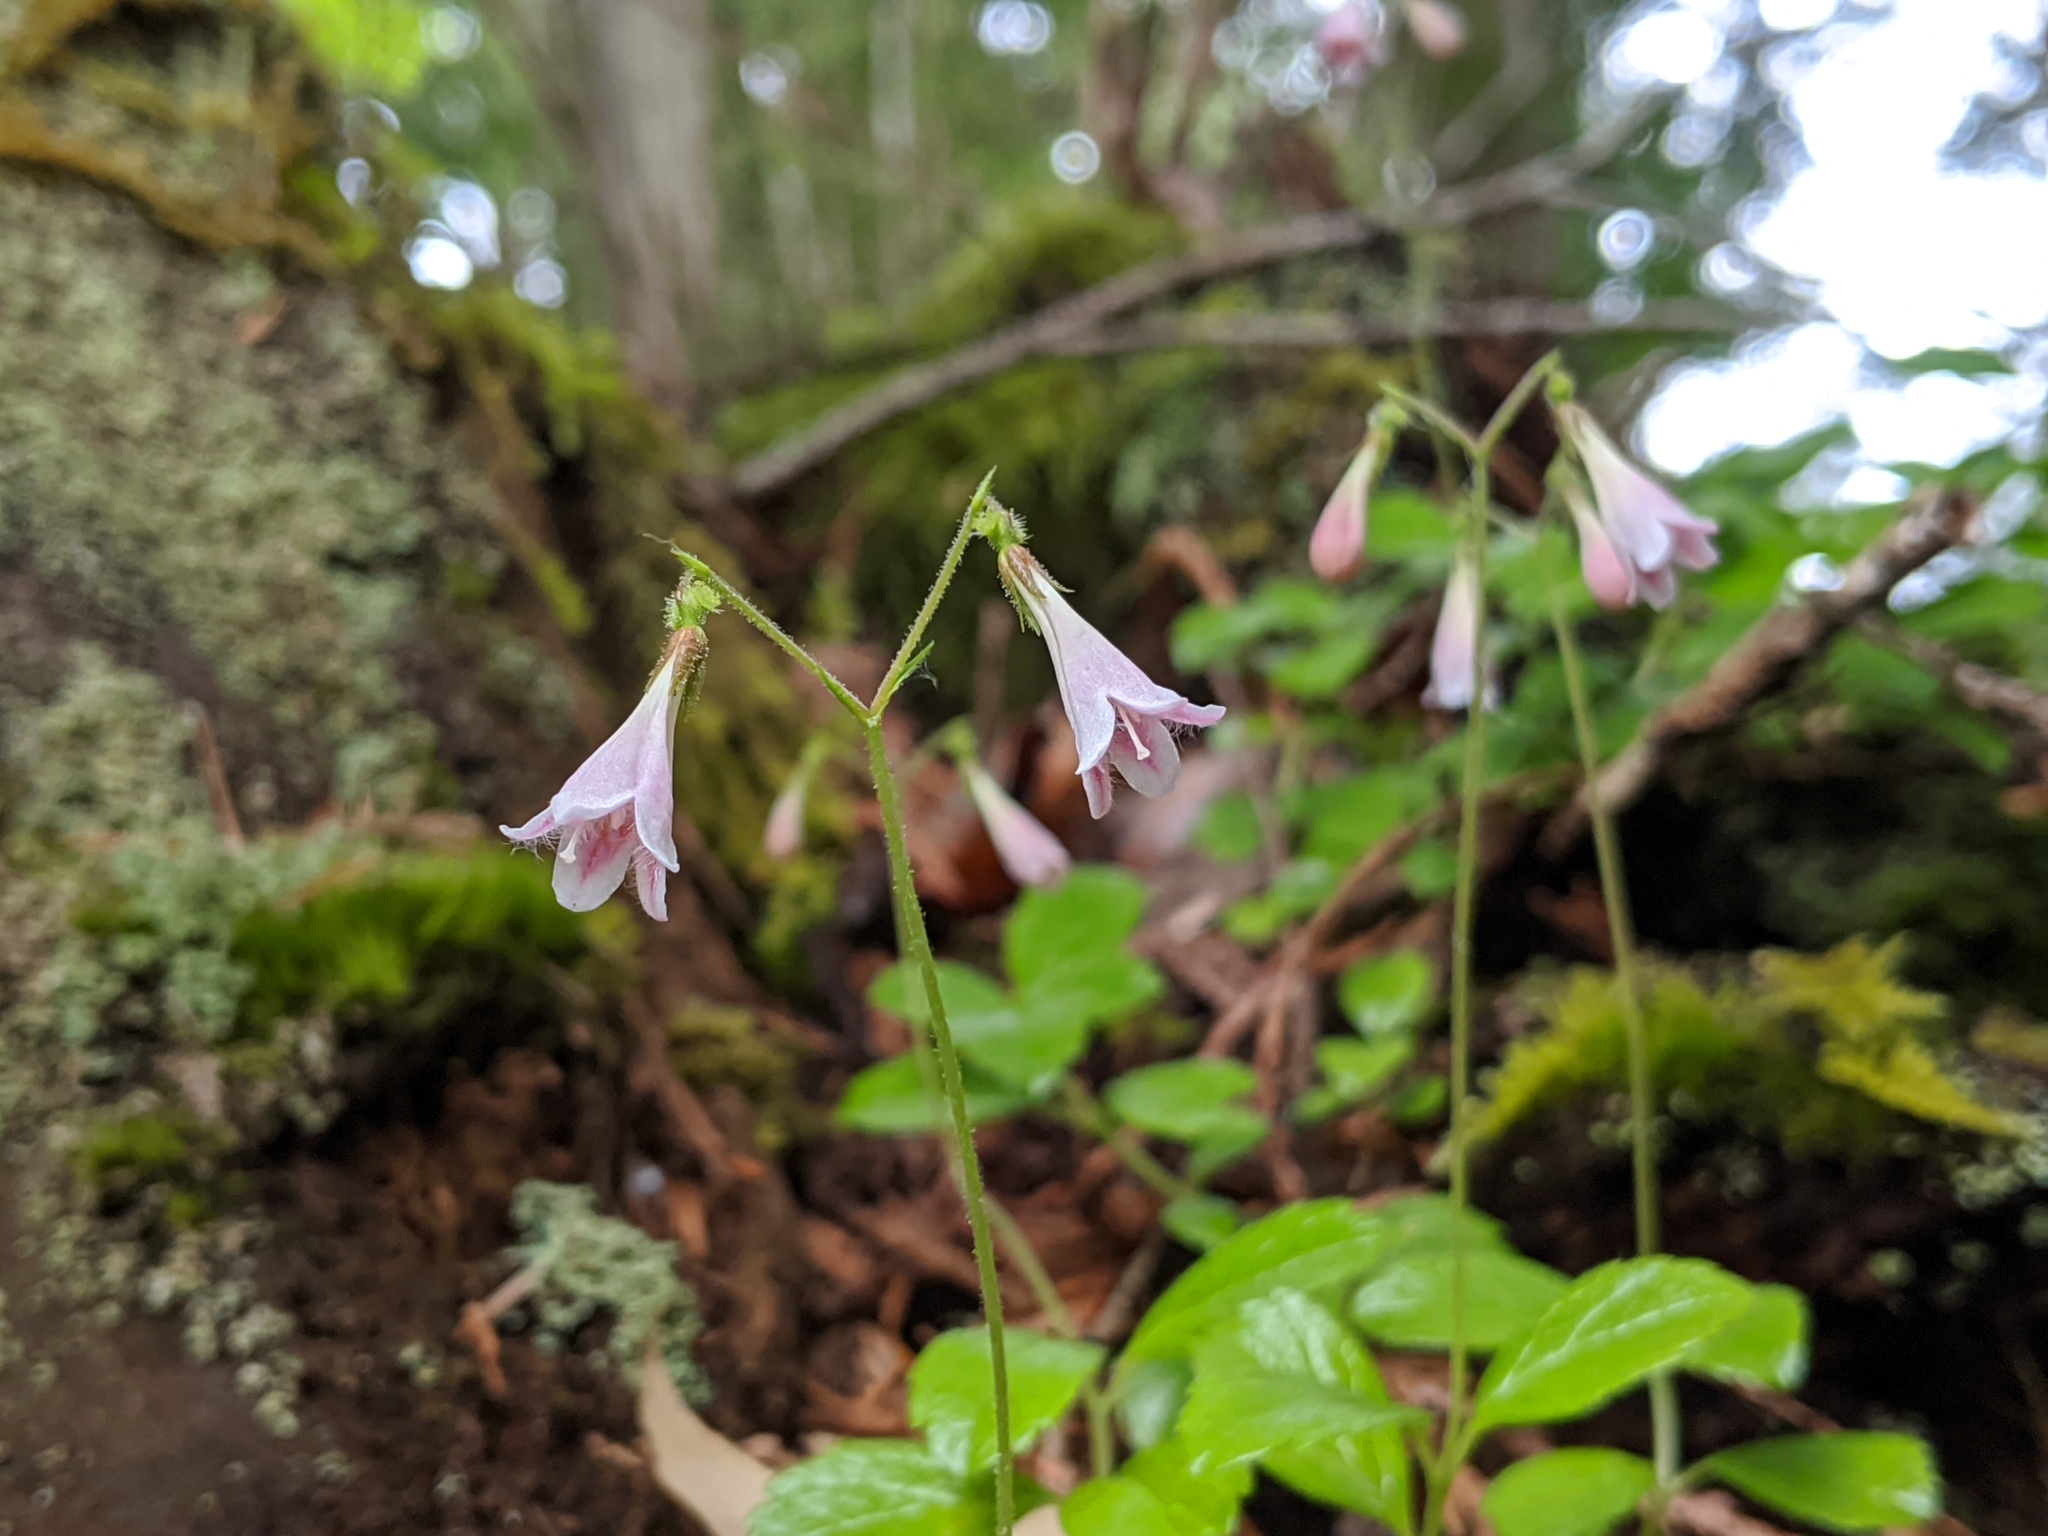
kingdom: Plantae
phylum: Tracheophyta
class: Magnoliopsida
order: Dipsacales
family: Caprifoliaceae
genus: Linnaea
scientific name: Linnaea borealis
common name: Twinflower
